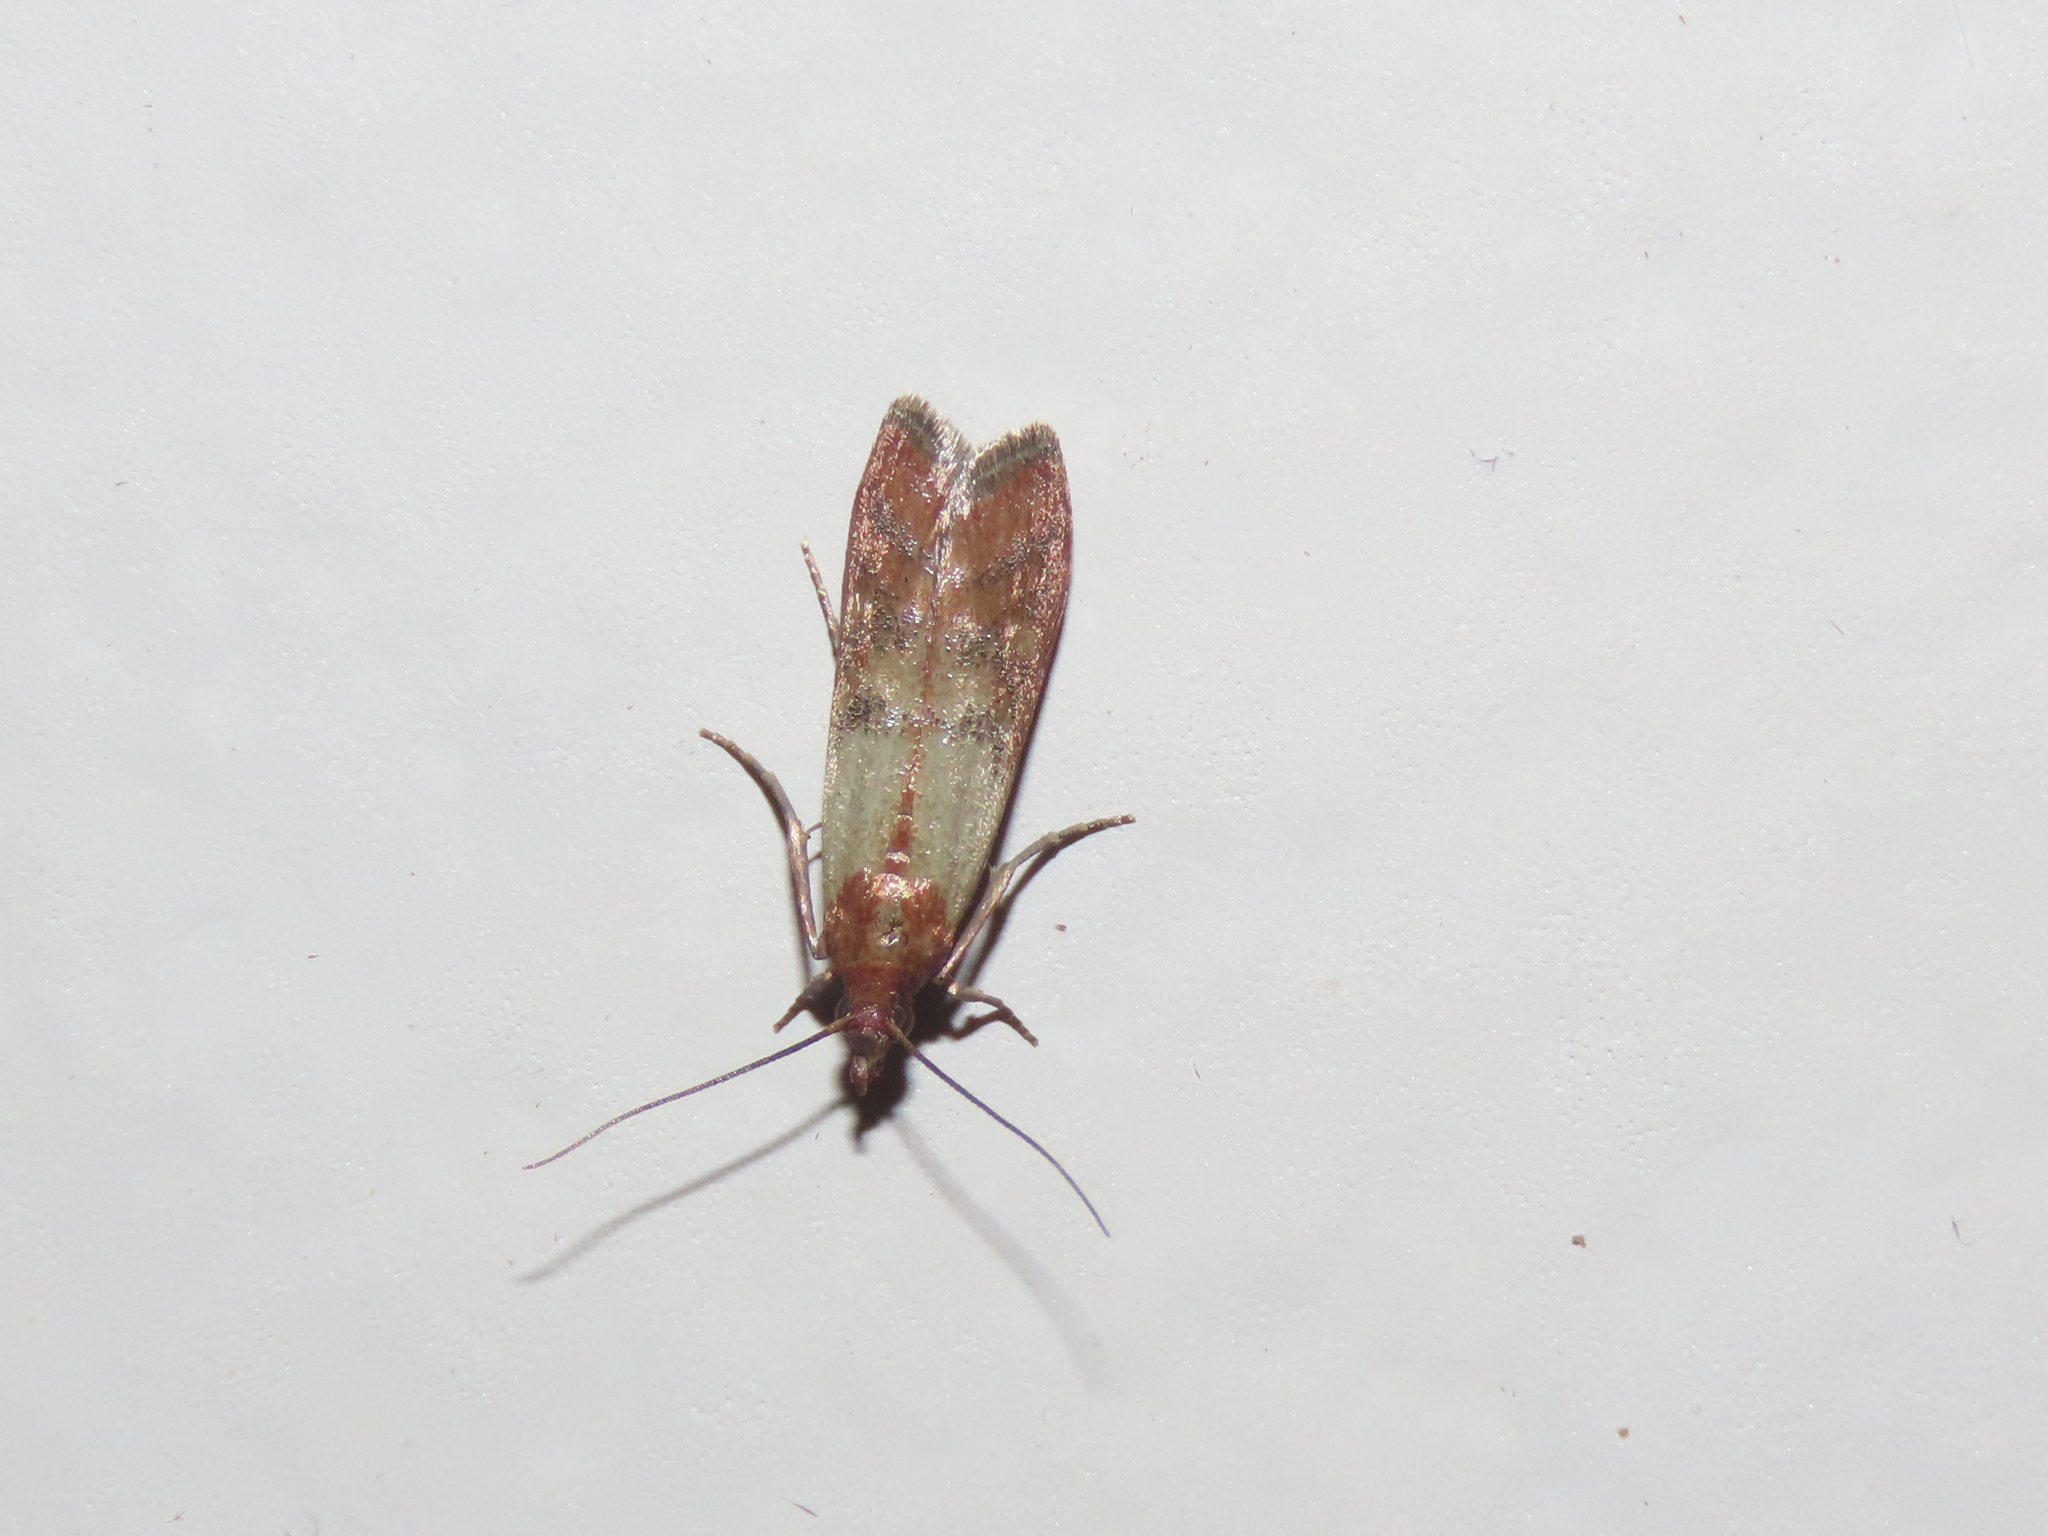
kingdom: Animalia
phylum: Arthropoda
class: Insecta
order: Lepidoptera
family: Pyralidae
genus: Plodia
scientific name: Plodia interpunctella
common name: Indian meal moth
